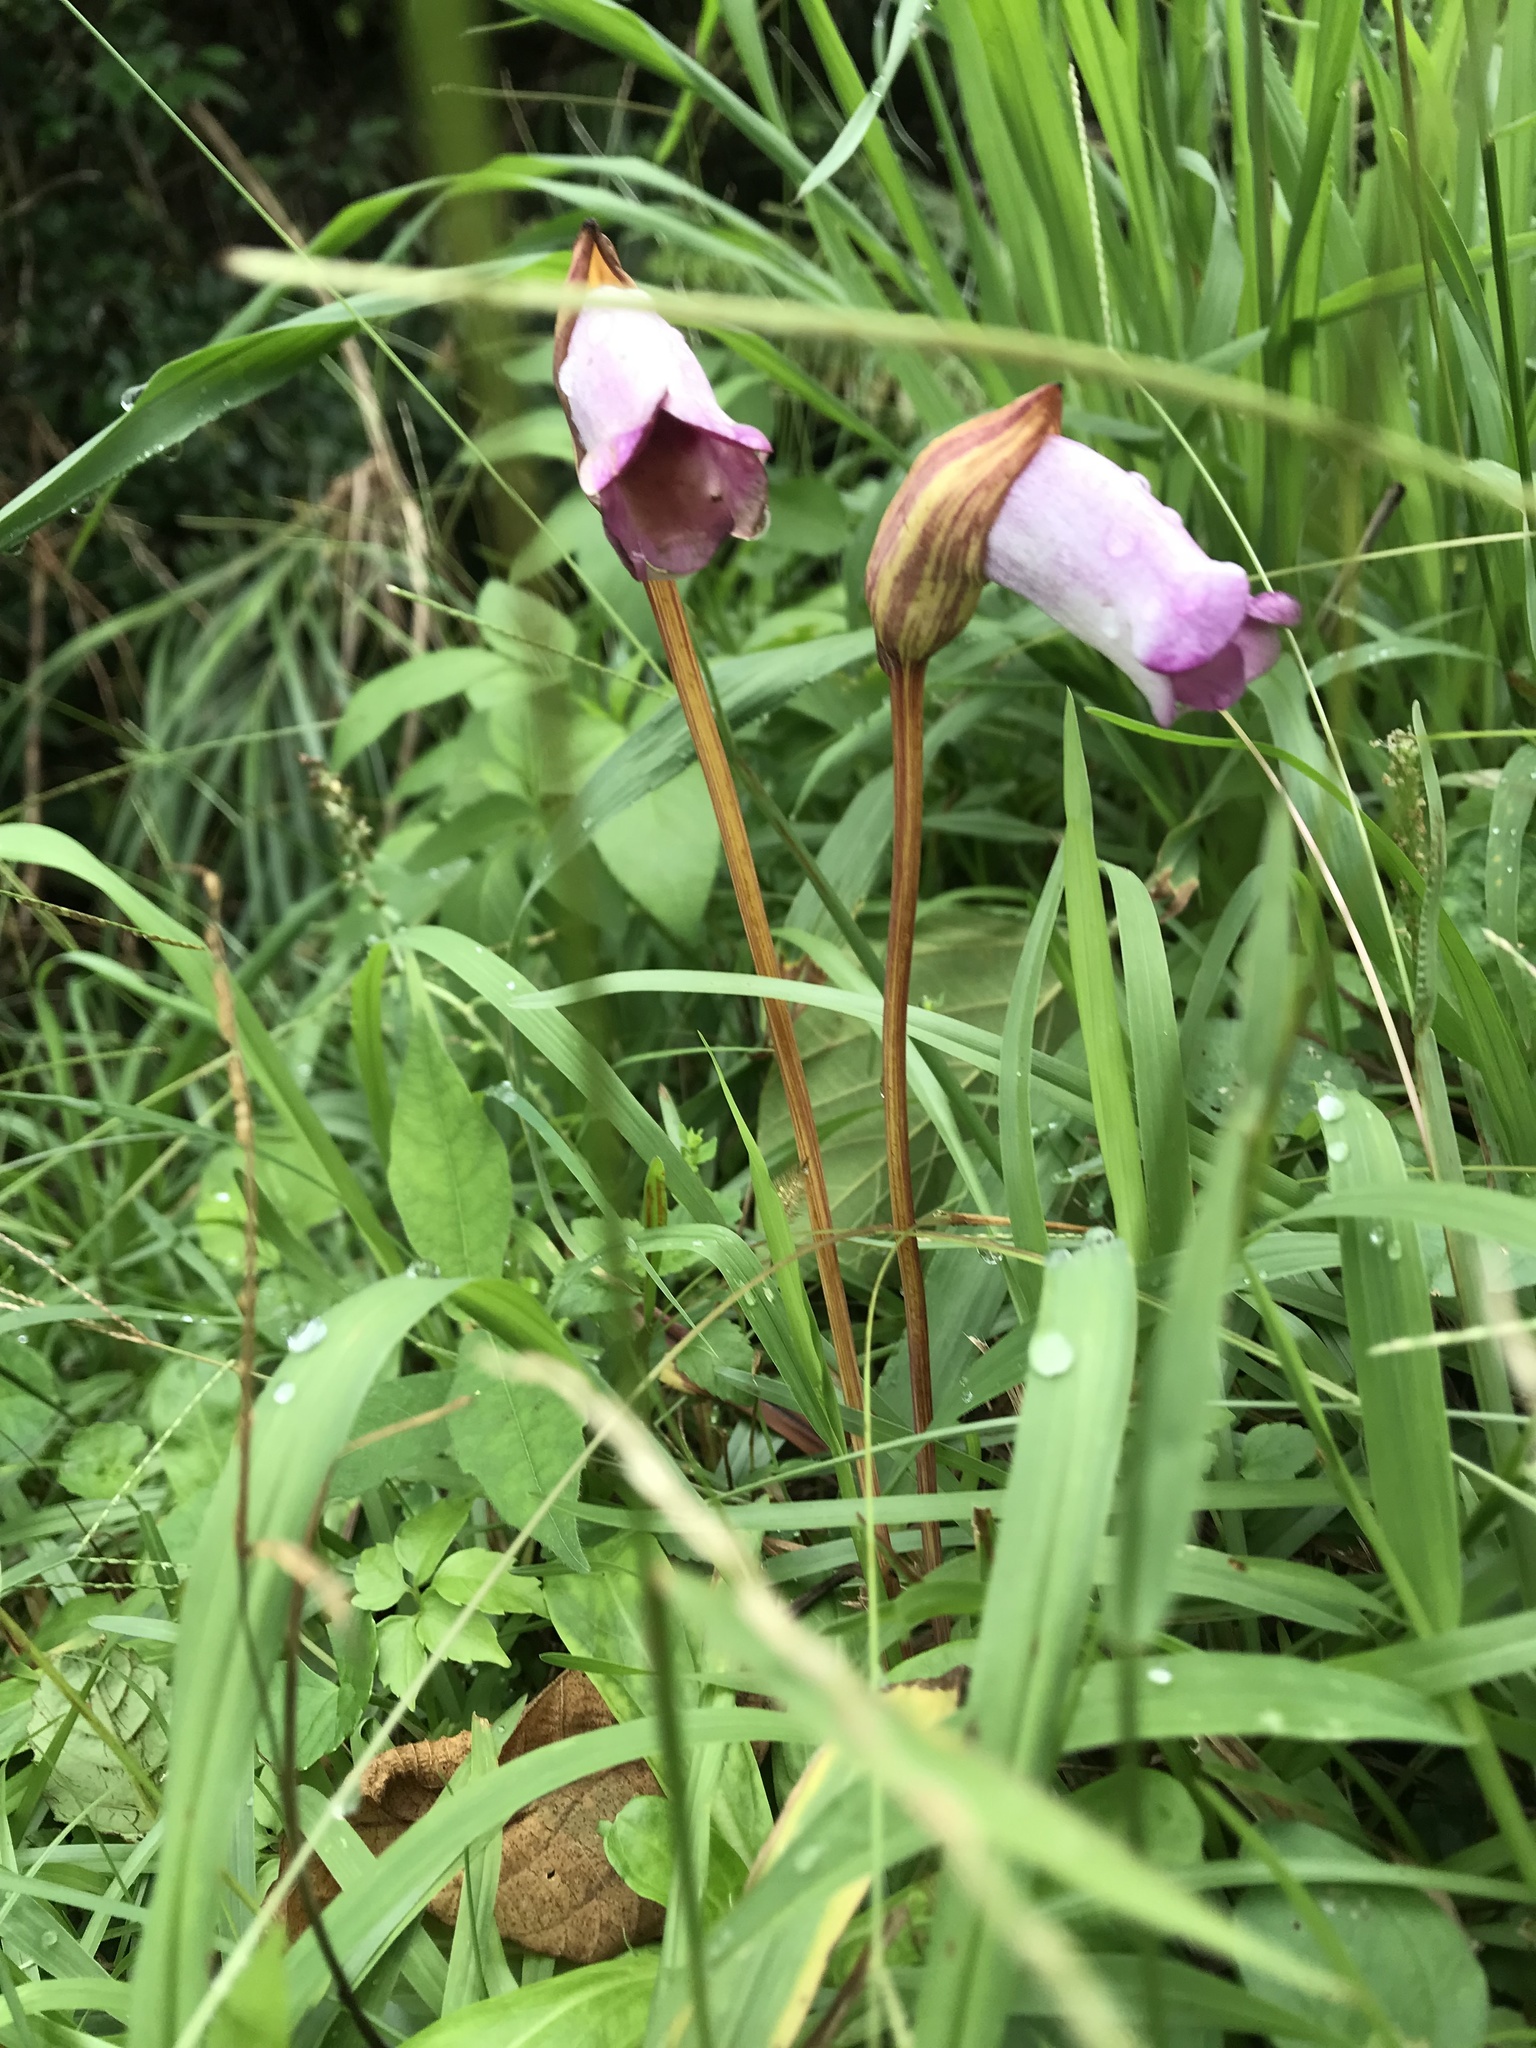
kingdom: Plantae
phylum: Tracheophyta
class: Magnoliopsida
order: Lamiales
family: Orobanchaceae
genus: Aeginetia
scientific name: Aeginetia indica
